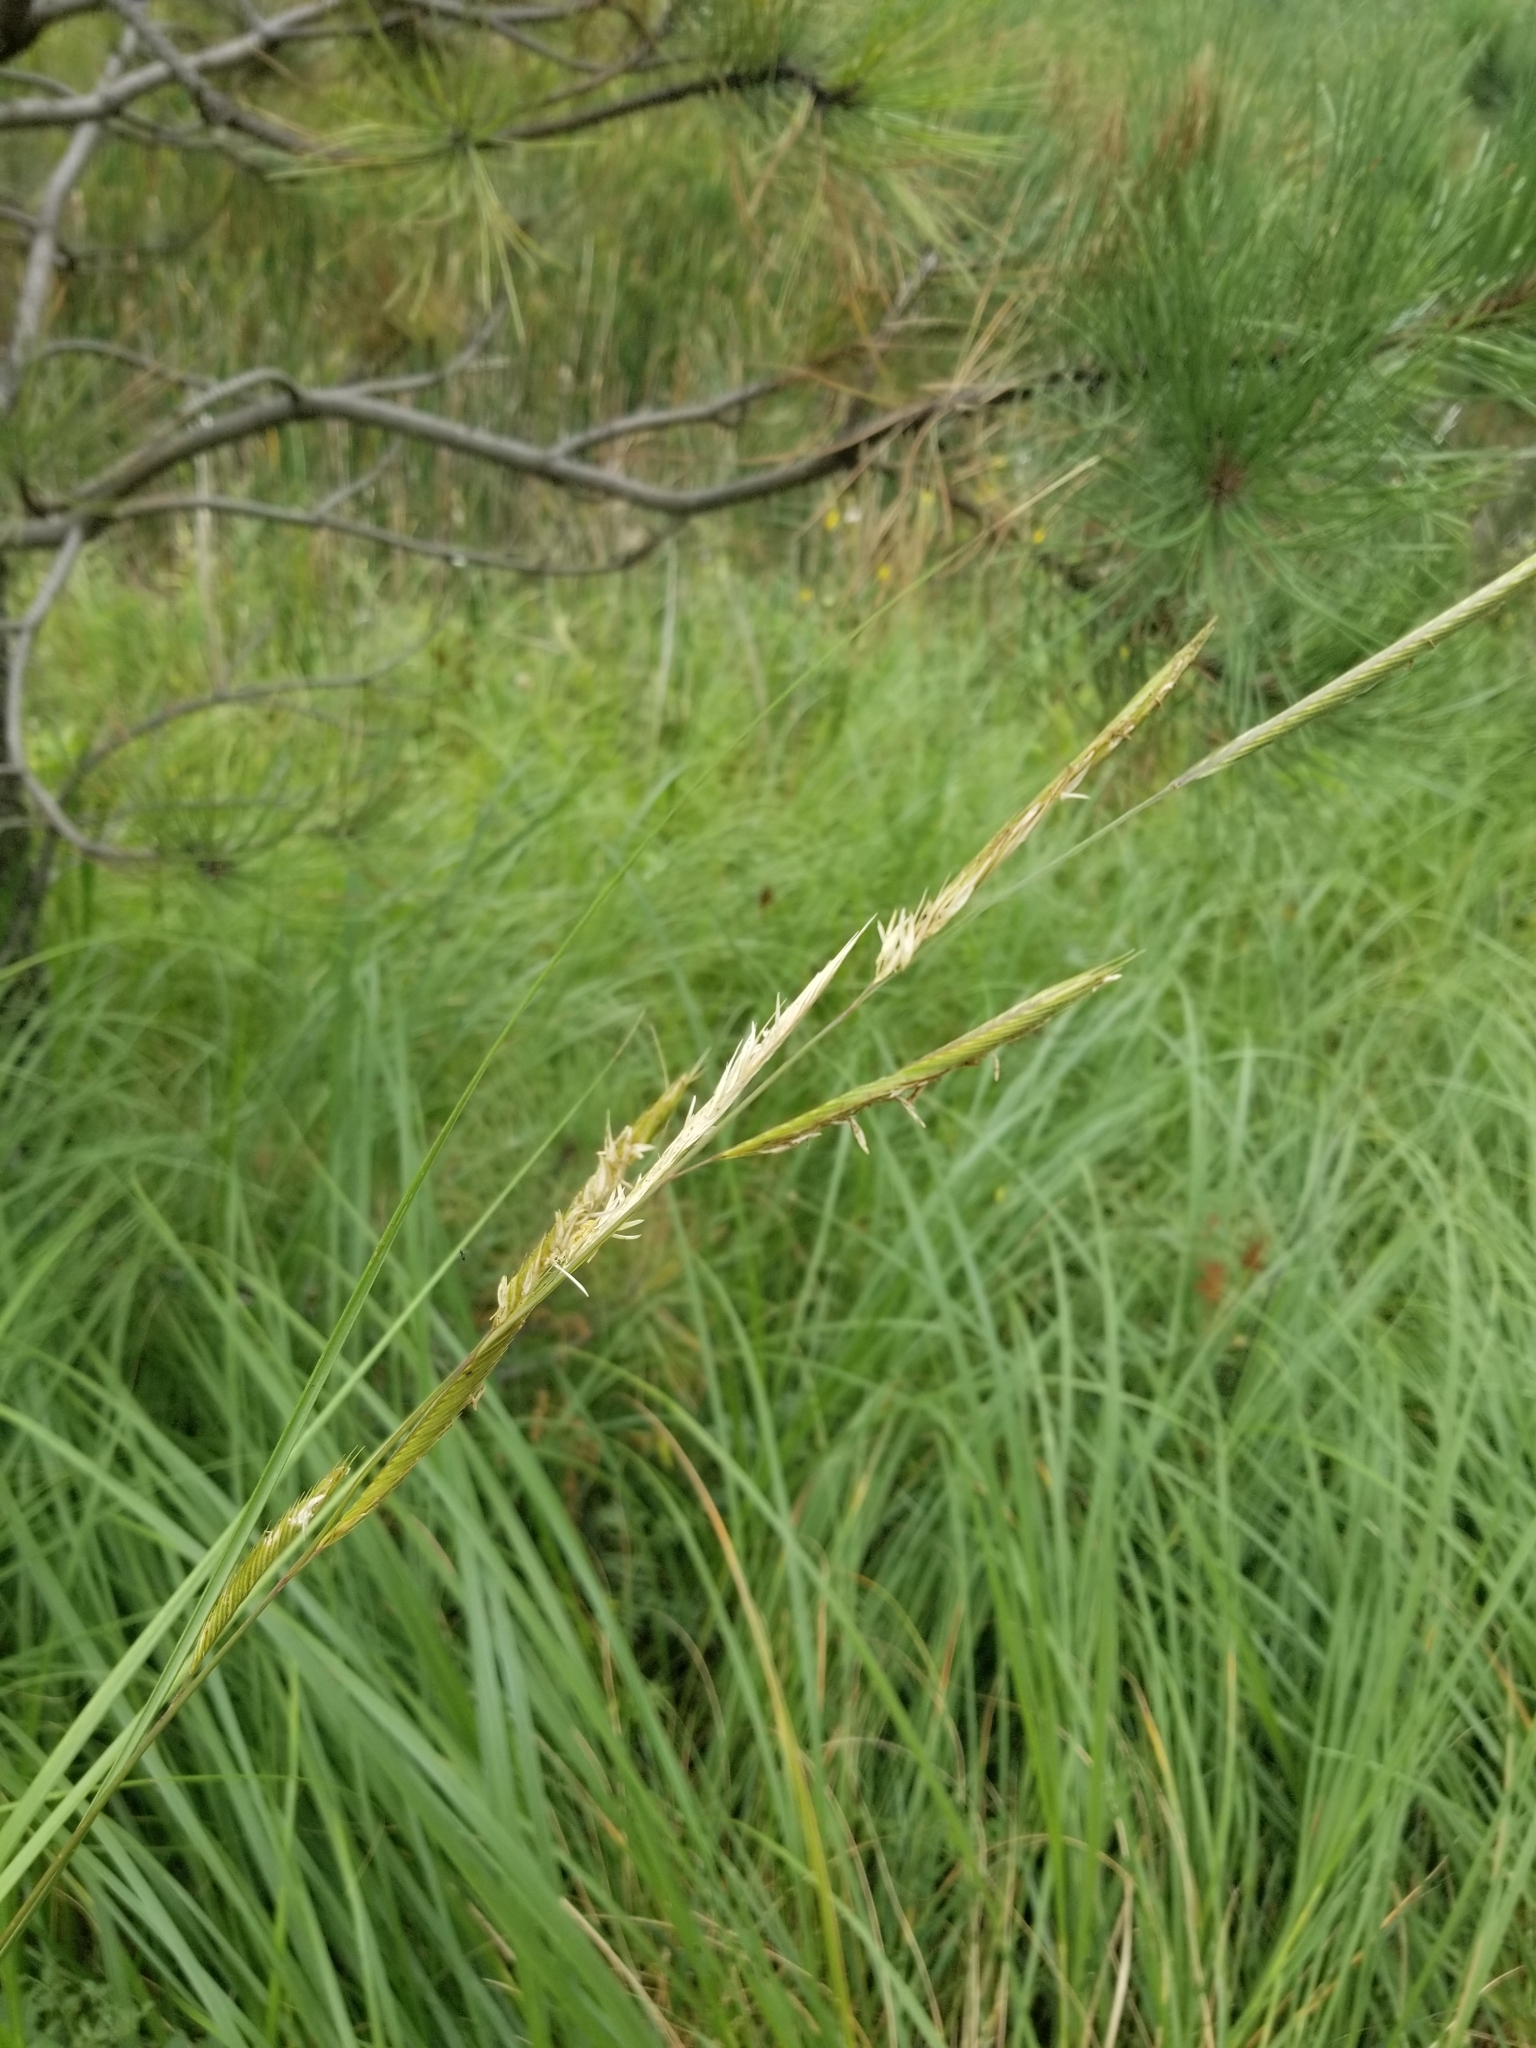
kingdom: Plantae
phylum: Tracheophyta
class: Liliopsida
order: Poales
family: Poaceae
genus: Sporobolus
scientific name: Sporobolus michauxianus
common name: Freshwater cordgrass
